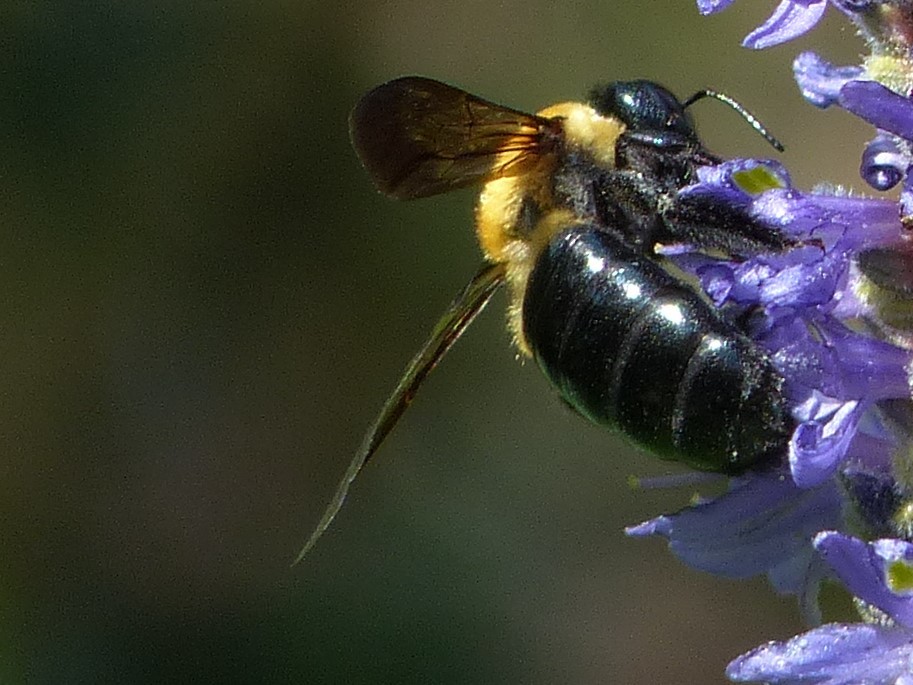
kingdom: Animalia
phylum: Arthropoda
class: Insecta
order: Hymenoptera
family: Apidae
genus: Xylocopa
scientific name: Xylocopa virginica
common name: Carpenter bee
